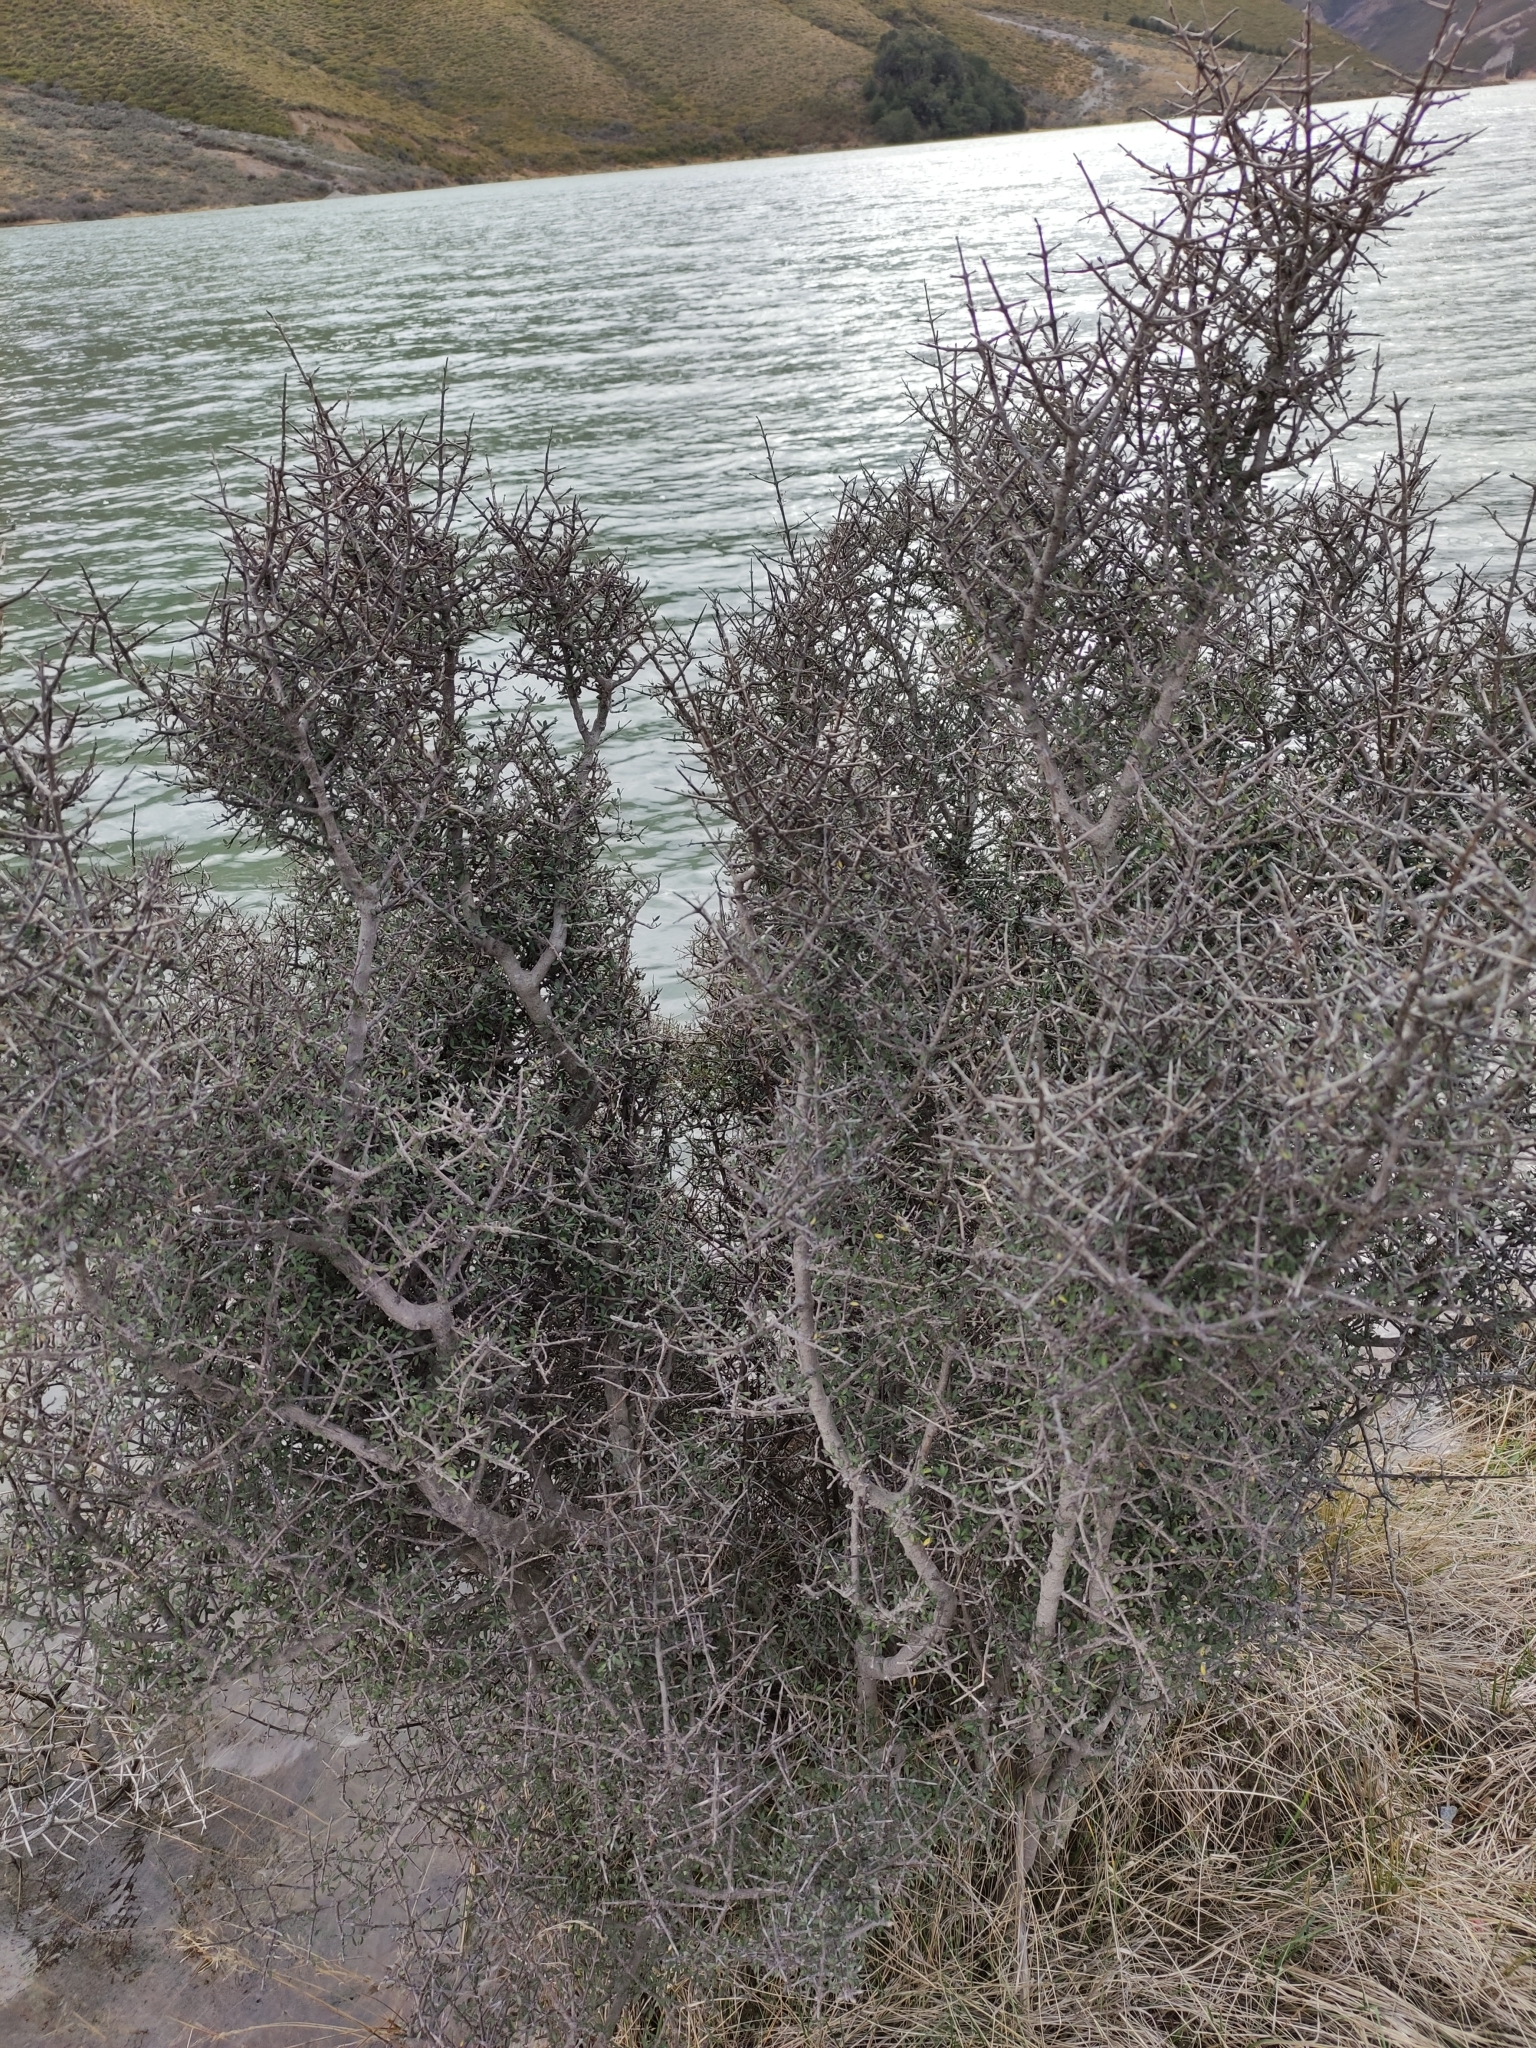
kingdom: Plantae
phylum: Tracheophyta
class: Magnoliopsida
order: Gentianales
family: Rubiaceae
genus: Coprosma
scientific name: Coprosma propinqua
